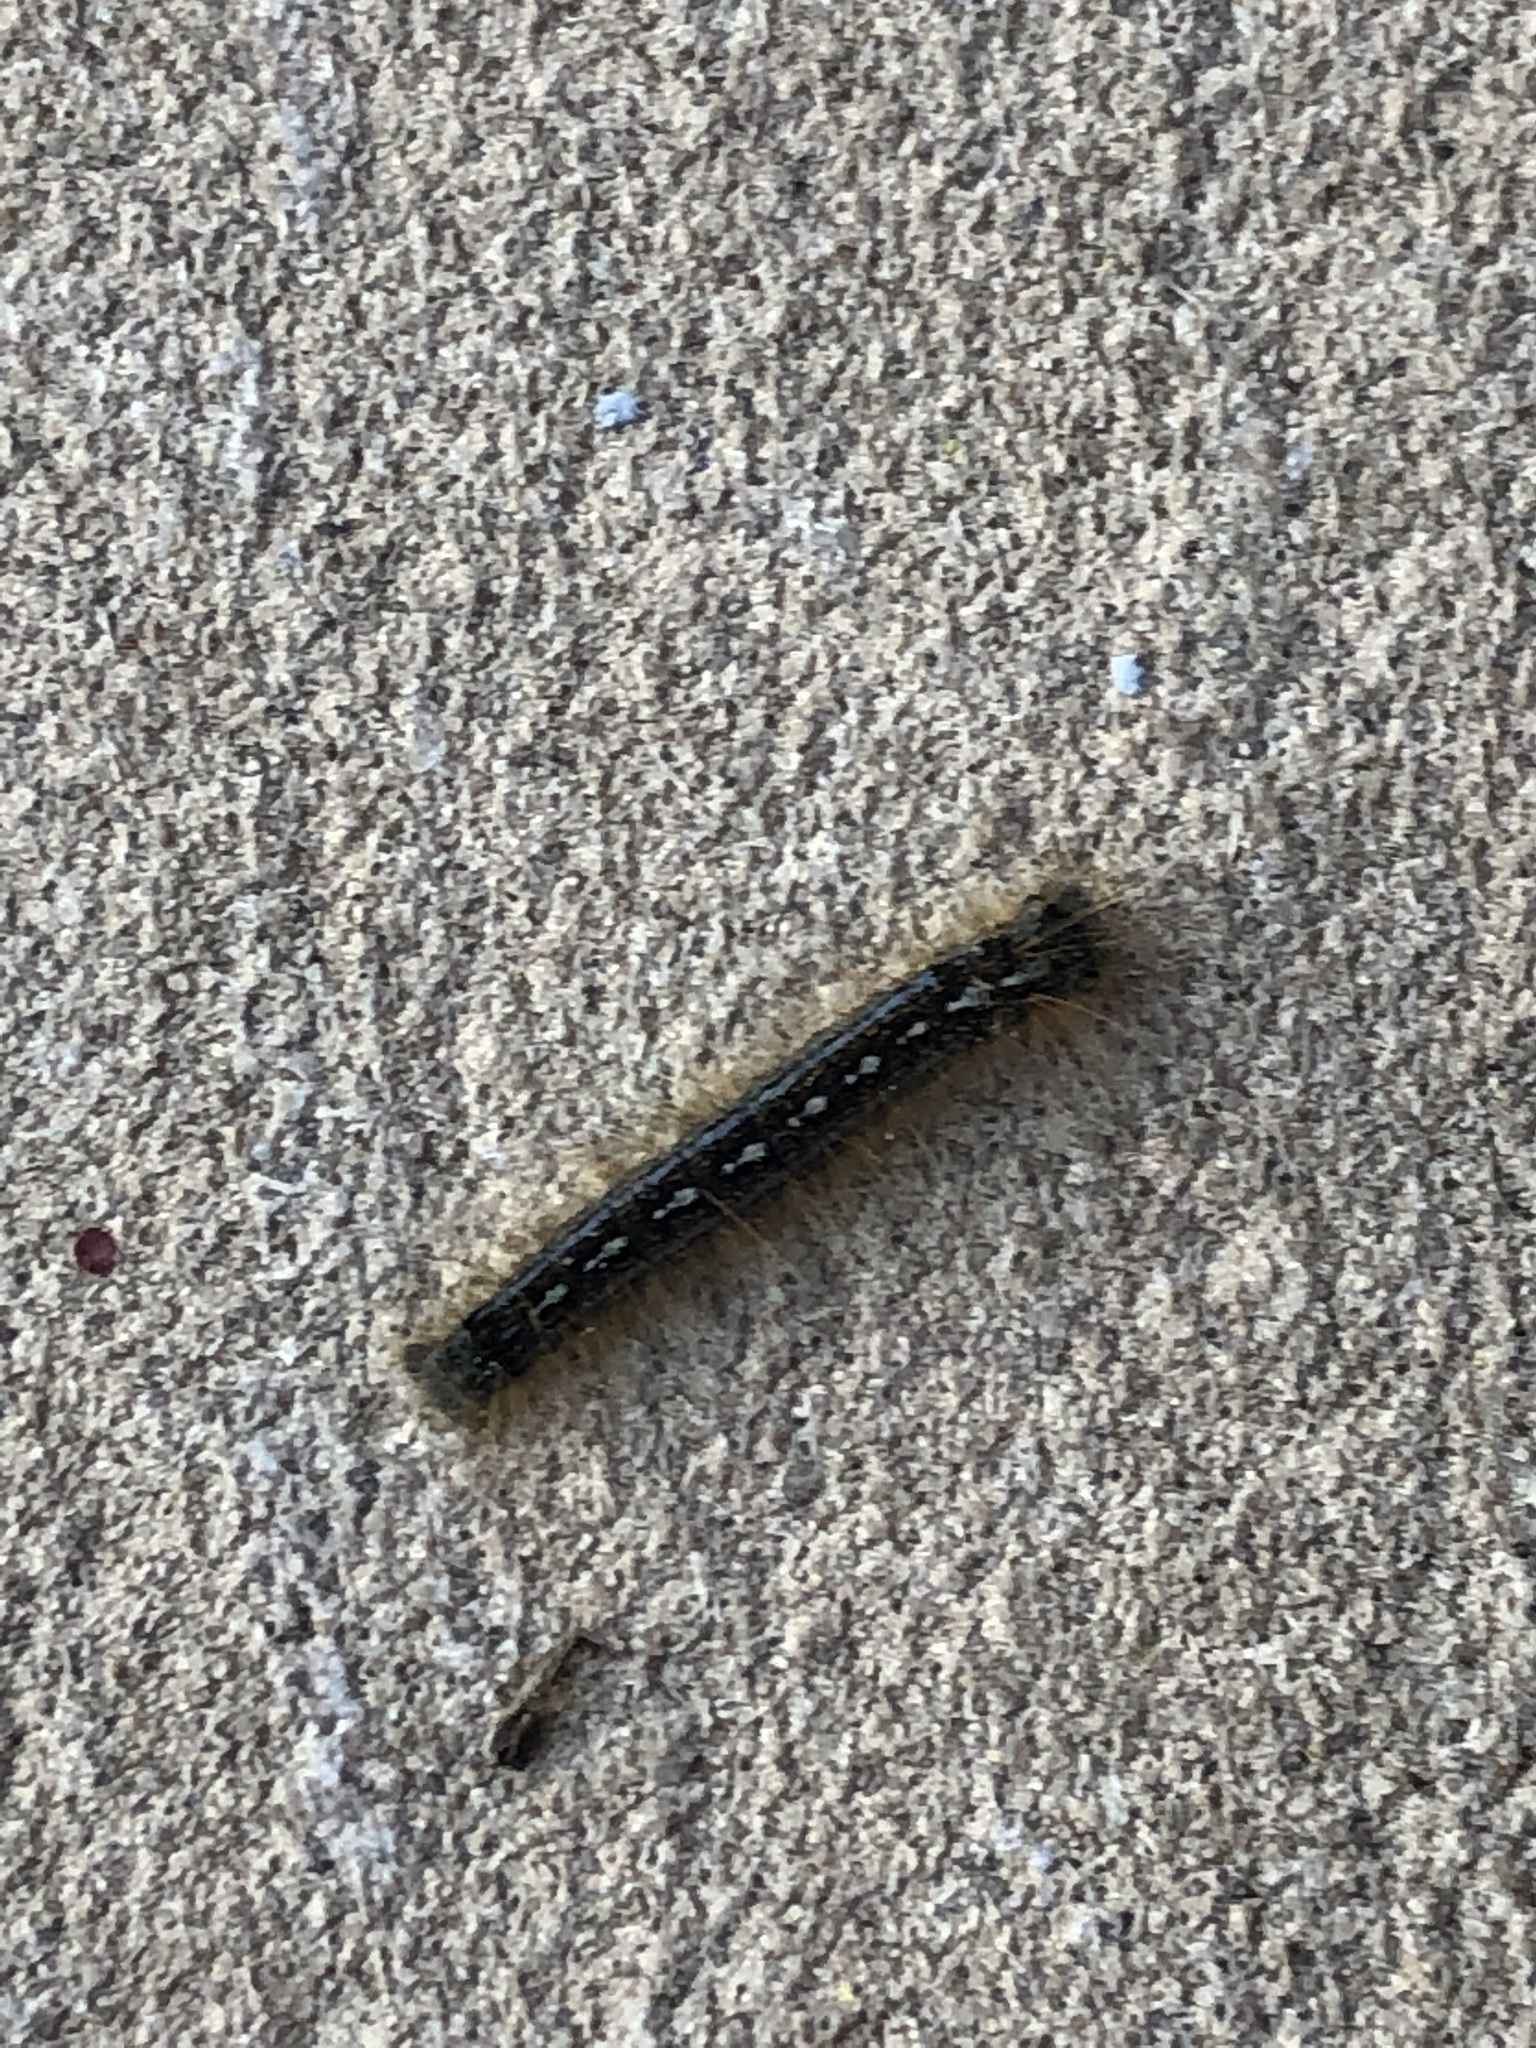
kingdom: Animalia
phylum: Arthropoda
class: Insecta
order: Lepidoptera
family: Lasiocampidae
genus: Malacosoma
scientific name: Malacosoma disstria
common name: Forest tent caterpillar
